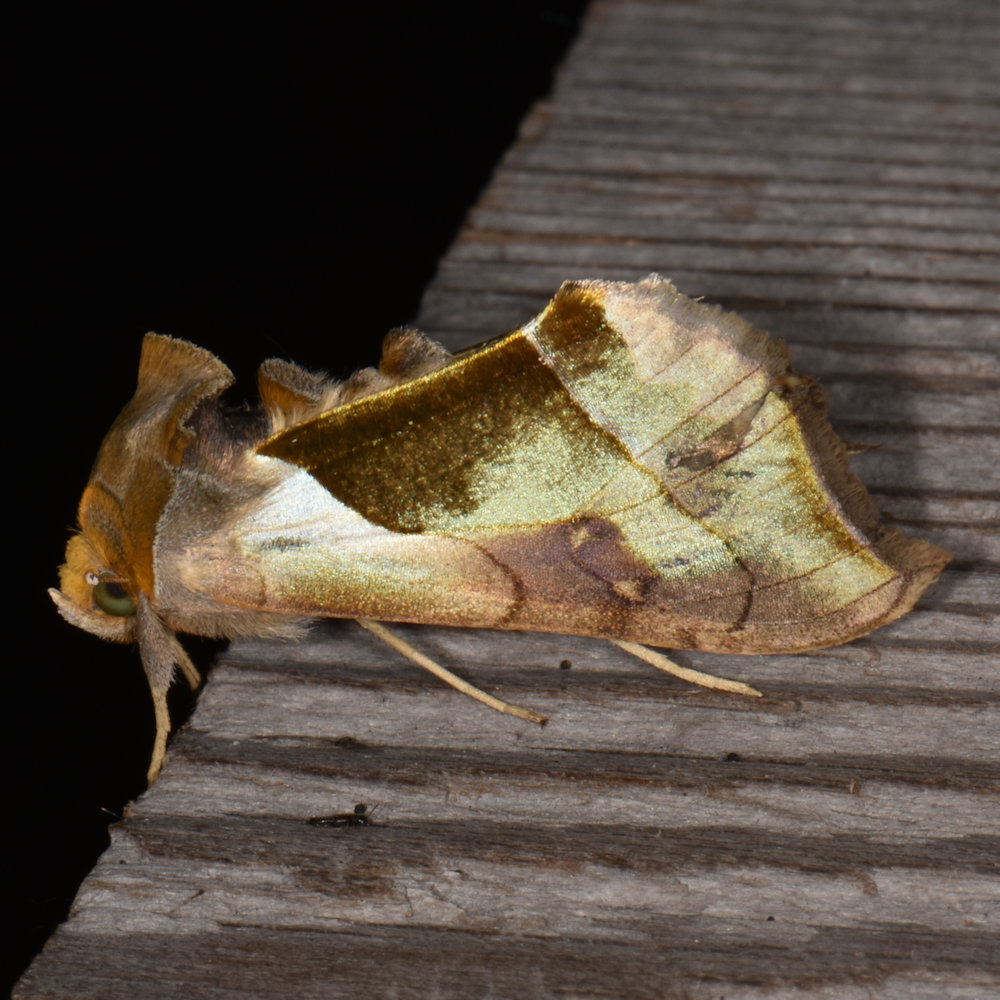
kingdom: Animalia
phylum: Arthropoda
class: Insecta
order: Lepidoptera
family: Noctuidae
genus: Diachrysia
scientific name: Diachrysia balluca
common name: Green-patched looper moth
